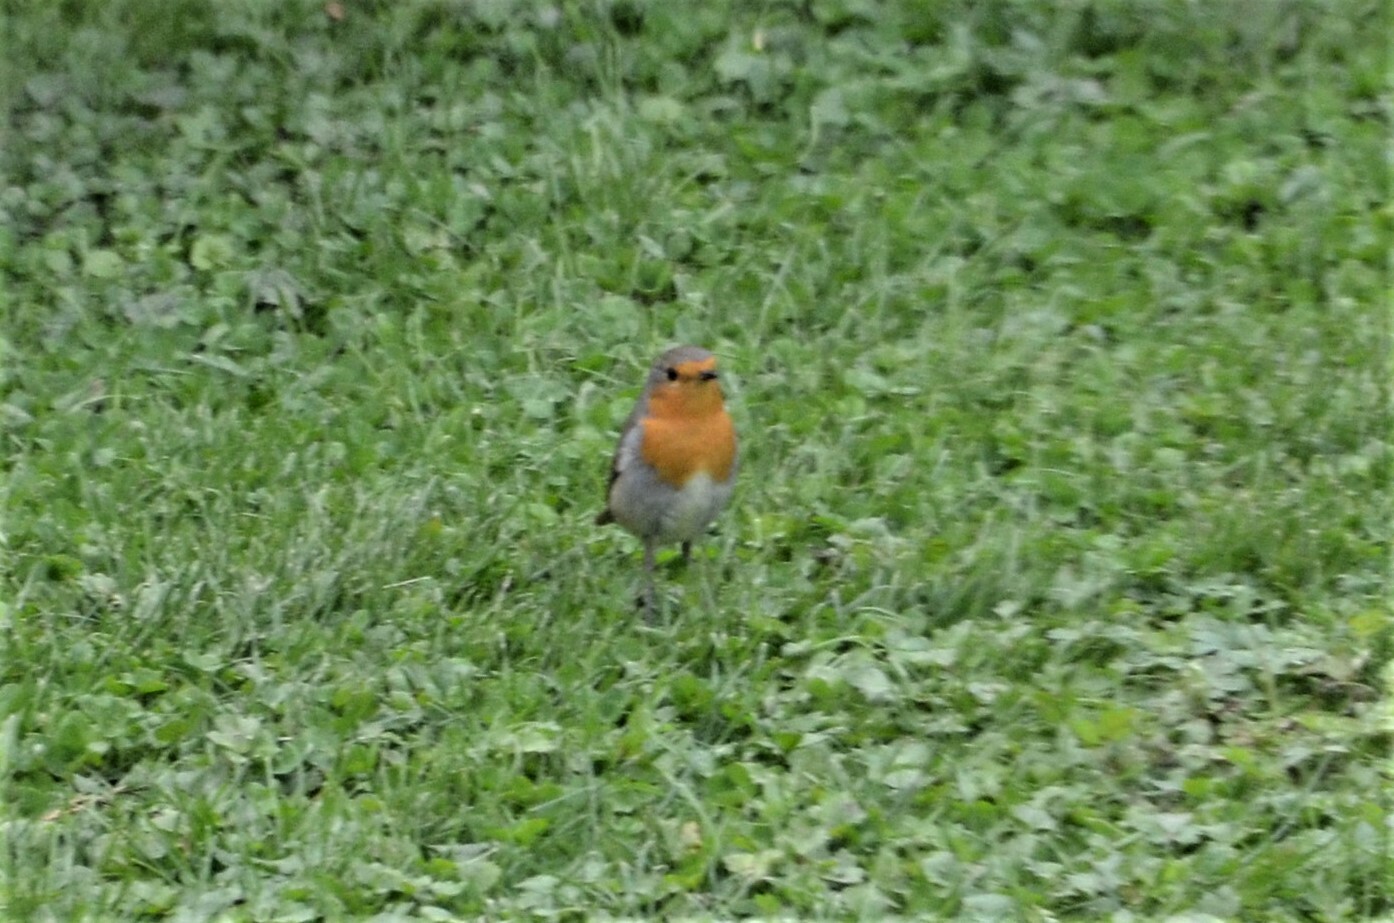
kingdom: Animalia
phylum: Chordata
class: Aves
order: Passeriformes
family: Muscicapidae
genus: Erithacus
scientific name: Erithacus rubecula
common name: European robin
